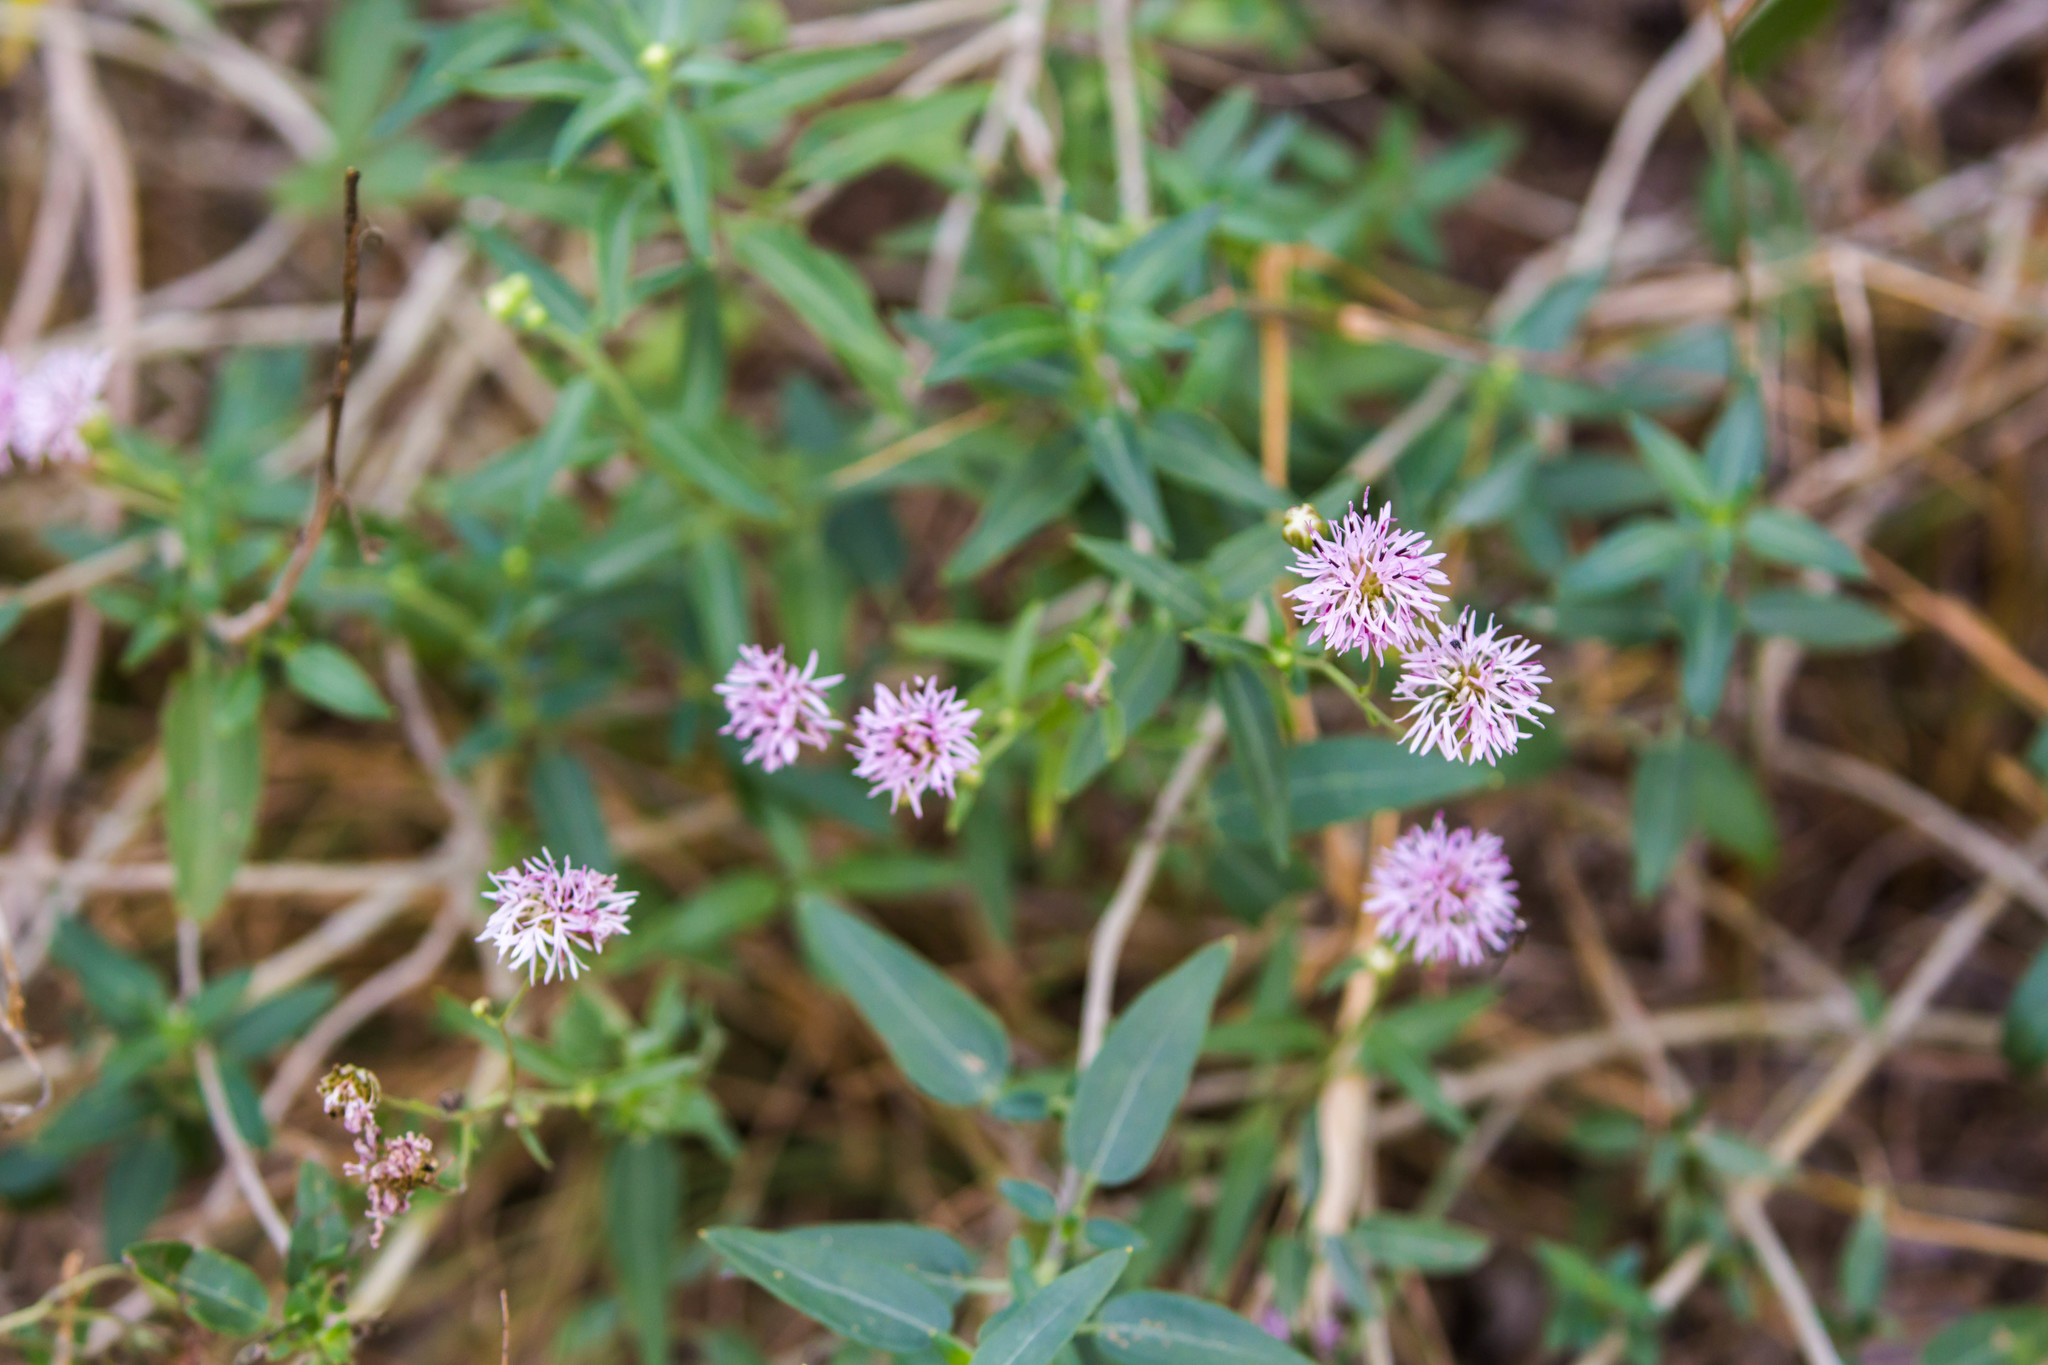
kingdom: Plantae
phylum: Tracheophyta
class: Magnoliopsida
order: Asterales
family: Asteraceae
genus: Palafoxia
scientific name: Palafoxia texana
